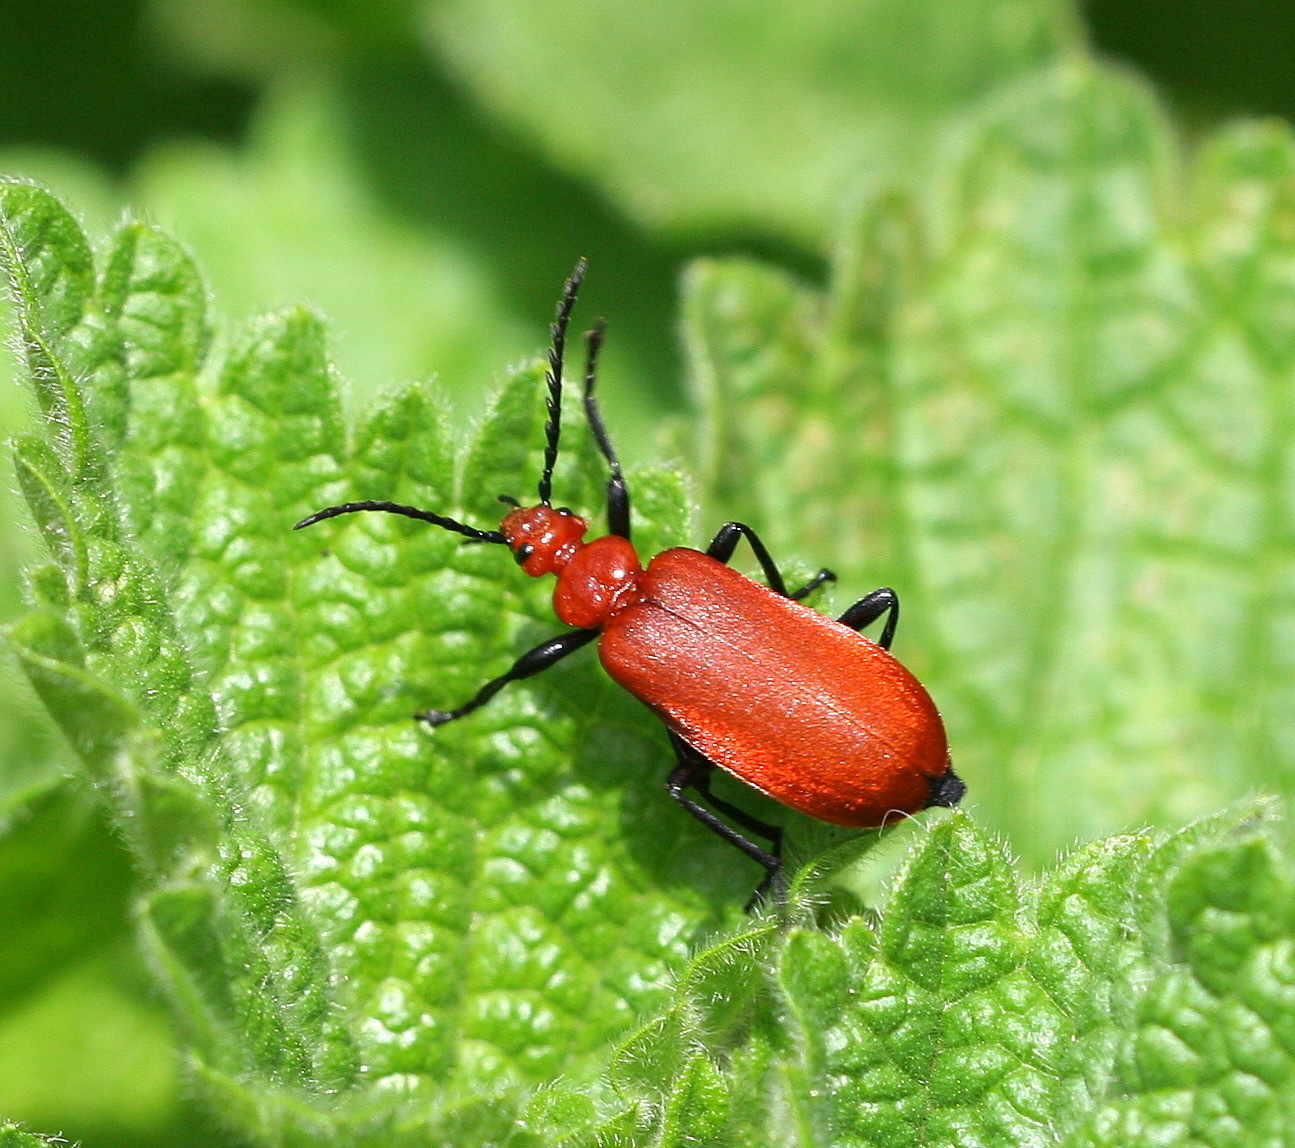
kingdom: Animalia
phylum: Arthropoda
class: Insecta
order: Coleoptera
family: Pyrochroidae
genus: Pyrochroa
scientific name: Pyrochroa serraticornis
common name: Red-headed cardinal beetle
